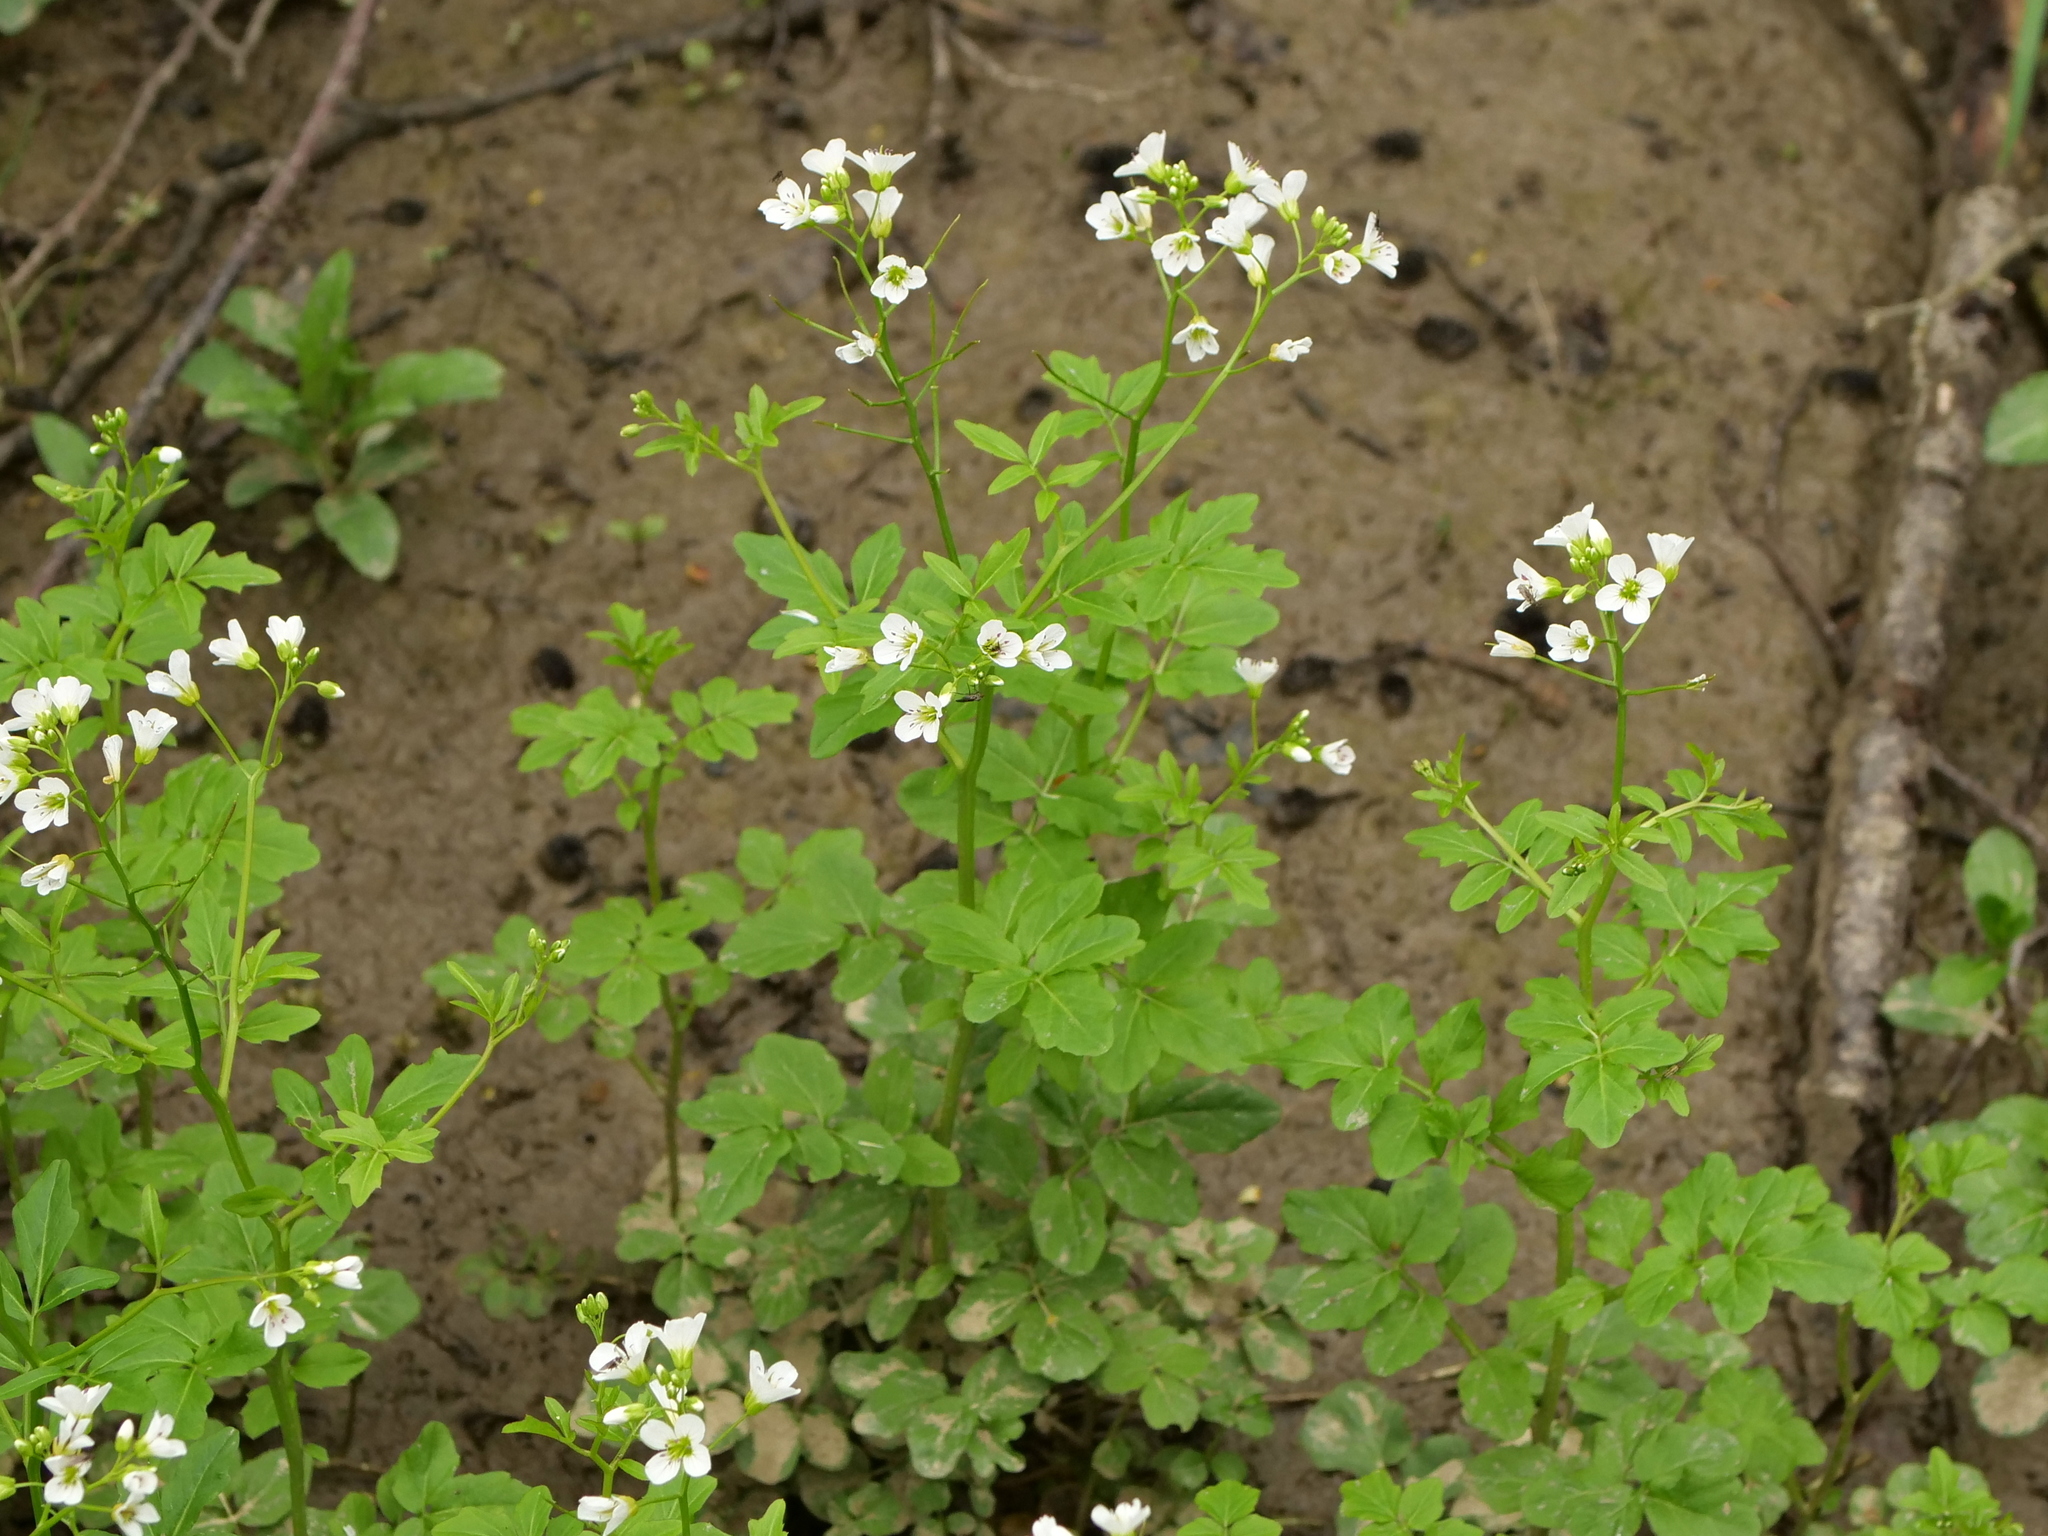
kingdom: Plantae
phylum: Tracheophyta
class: Magnoliopsida
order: Brassicales
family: Brassicaceae
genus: Cardamine
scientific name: Cardamine amara
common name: Large bitter-cress
